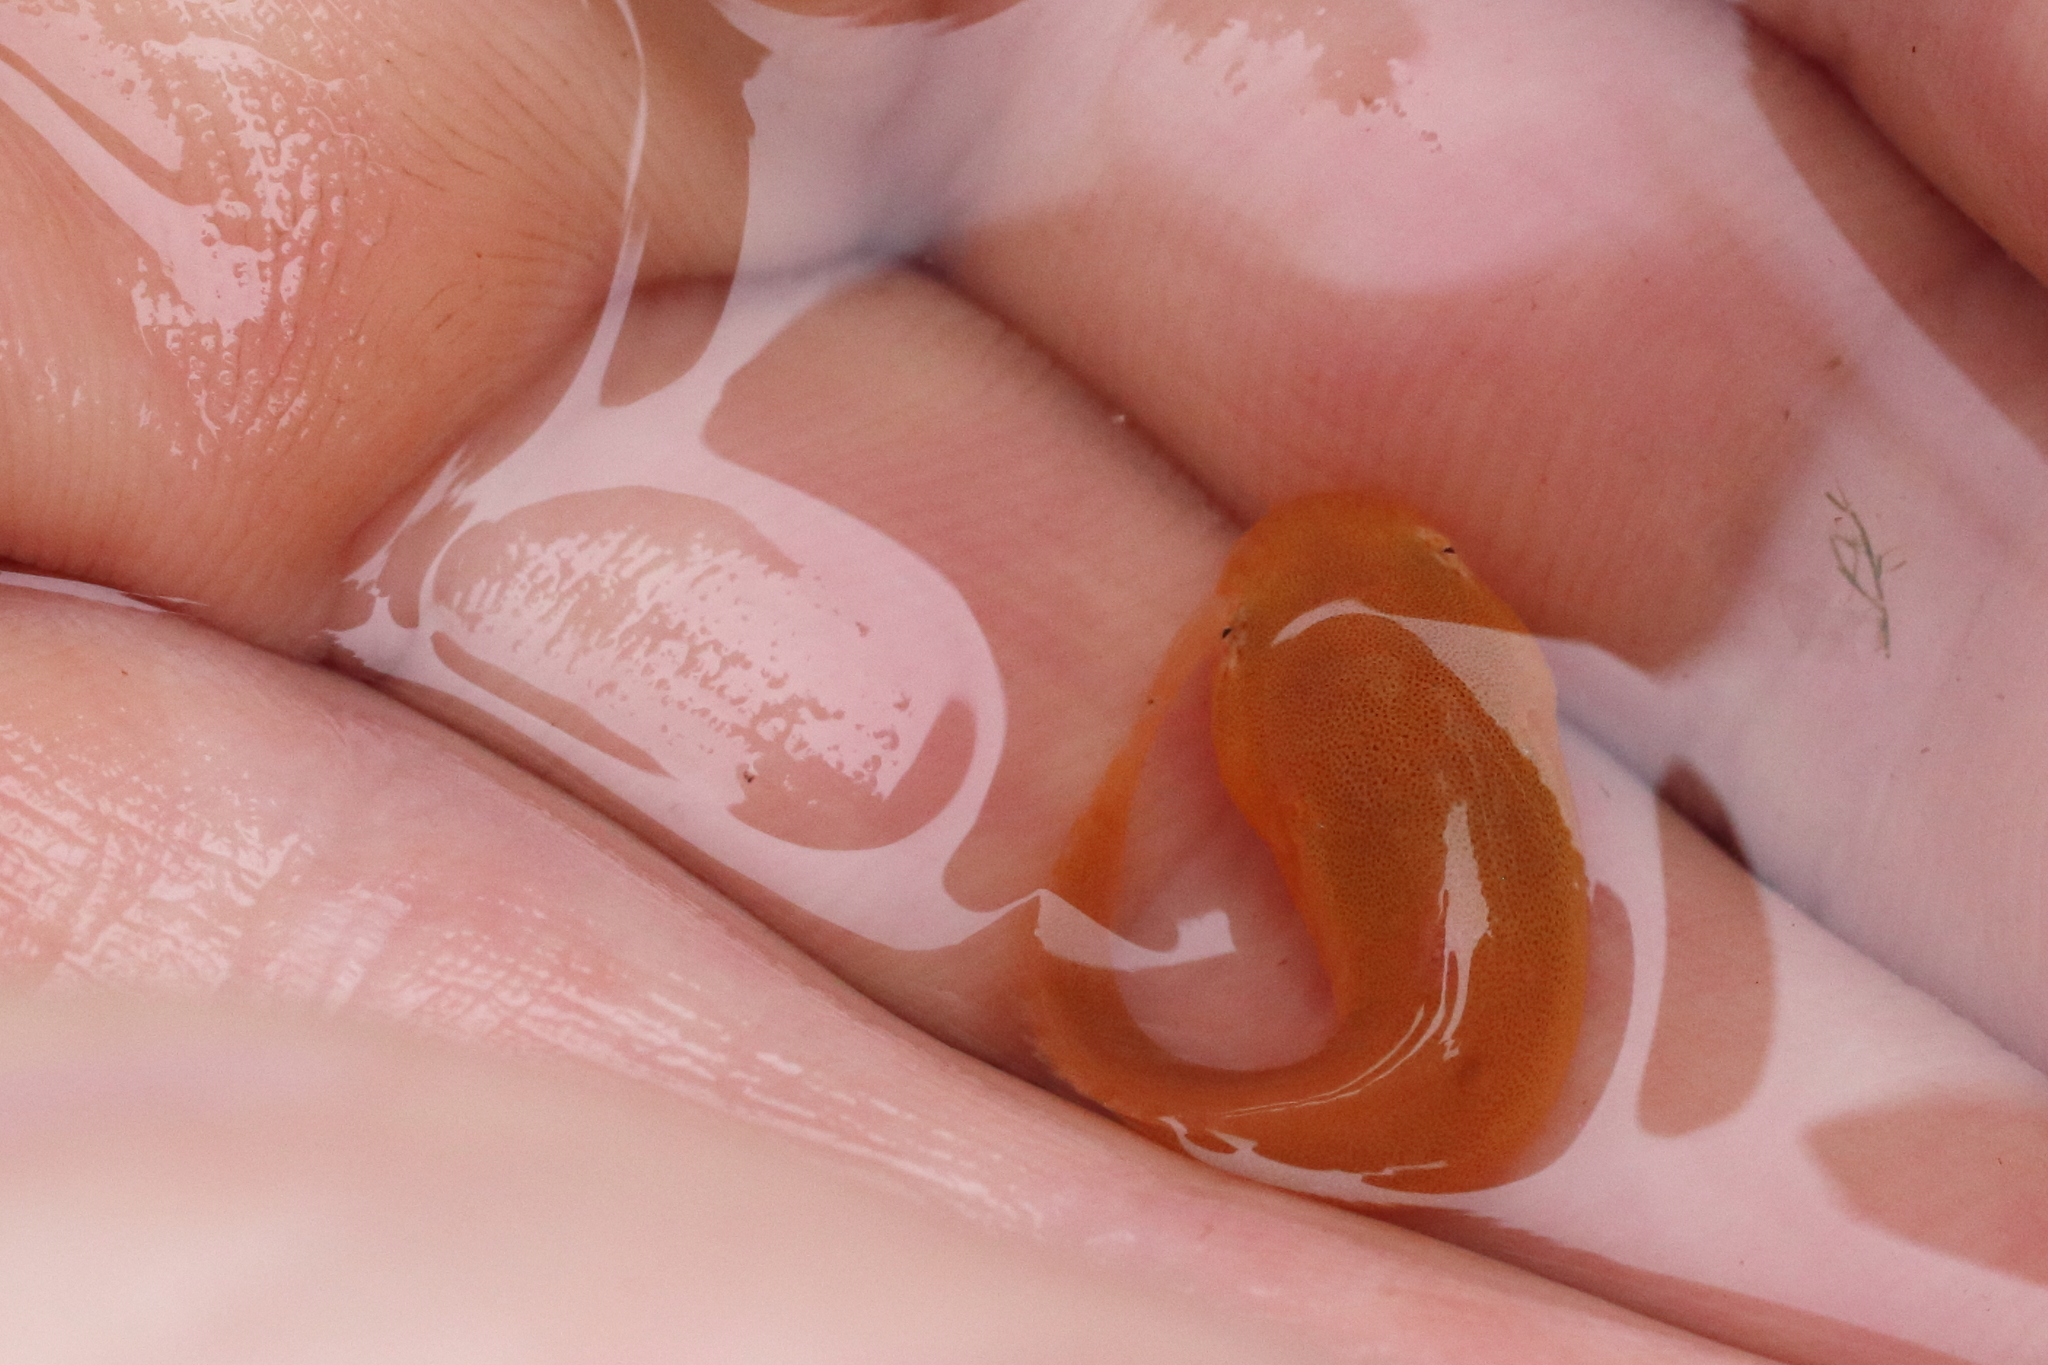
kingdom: Animalia
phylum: Chordata
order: Scorpaeniformes
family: Liparidae
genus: Liparis
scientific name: Liparis mucosus
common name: Slimy snailfish
